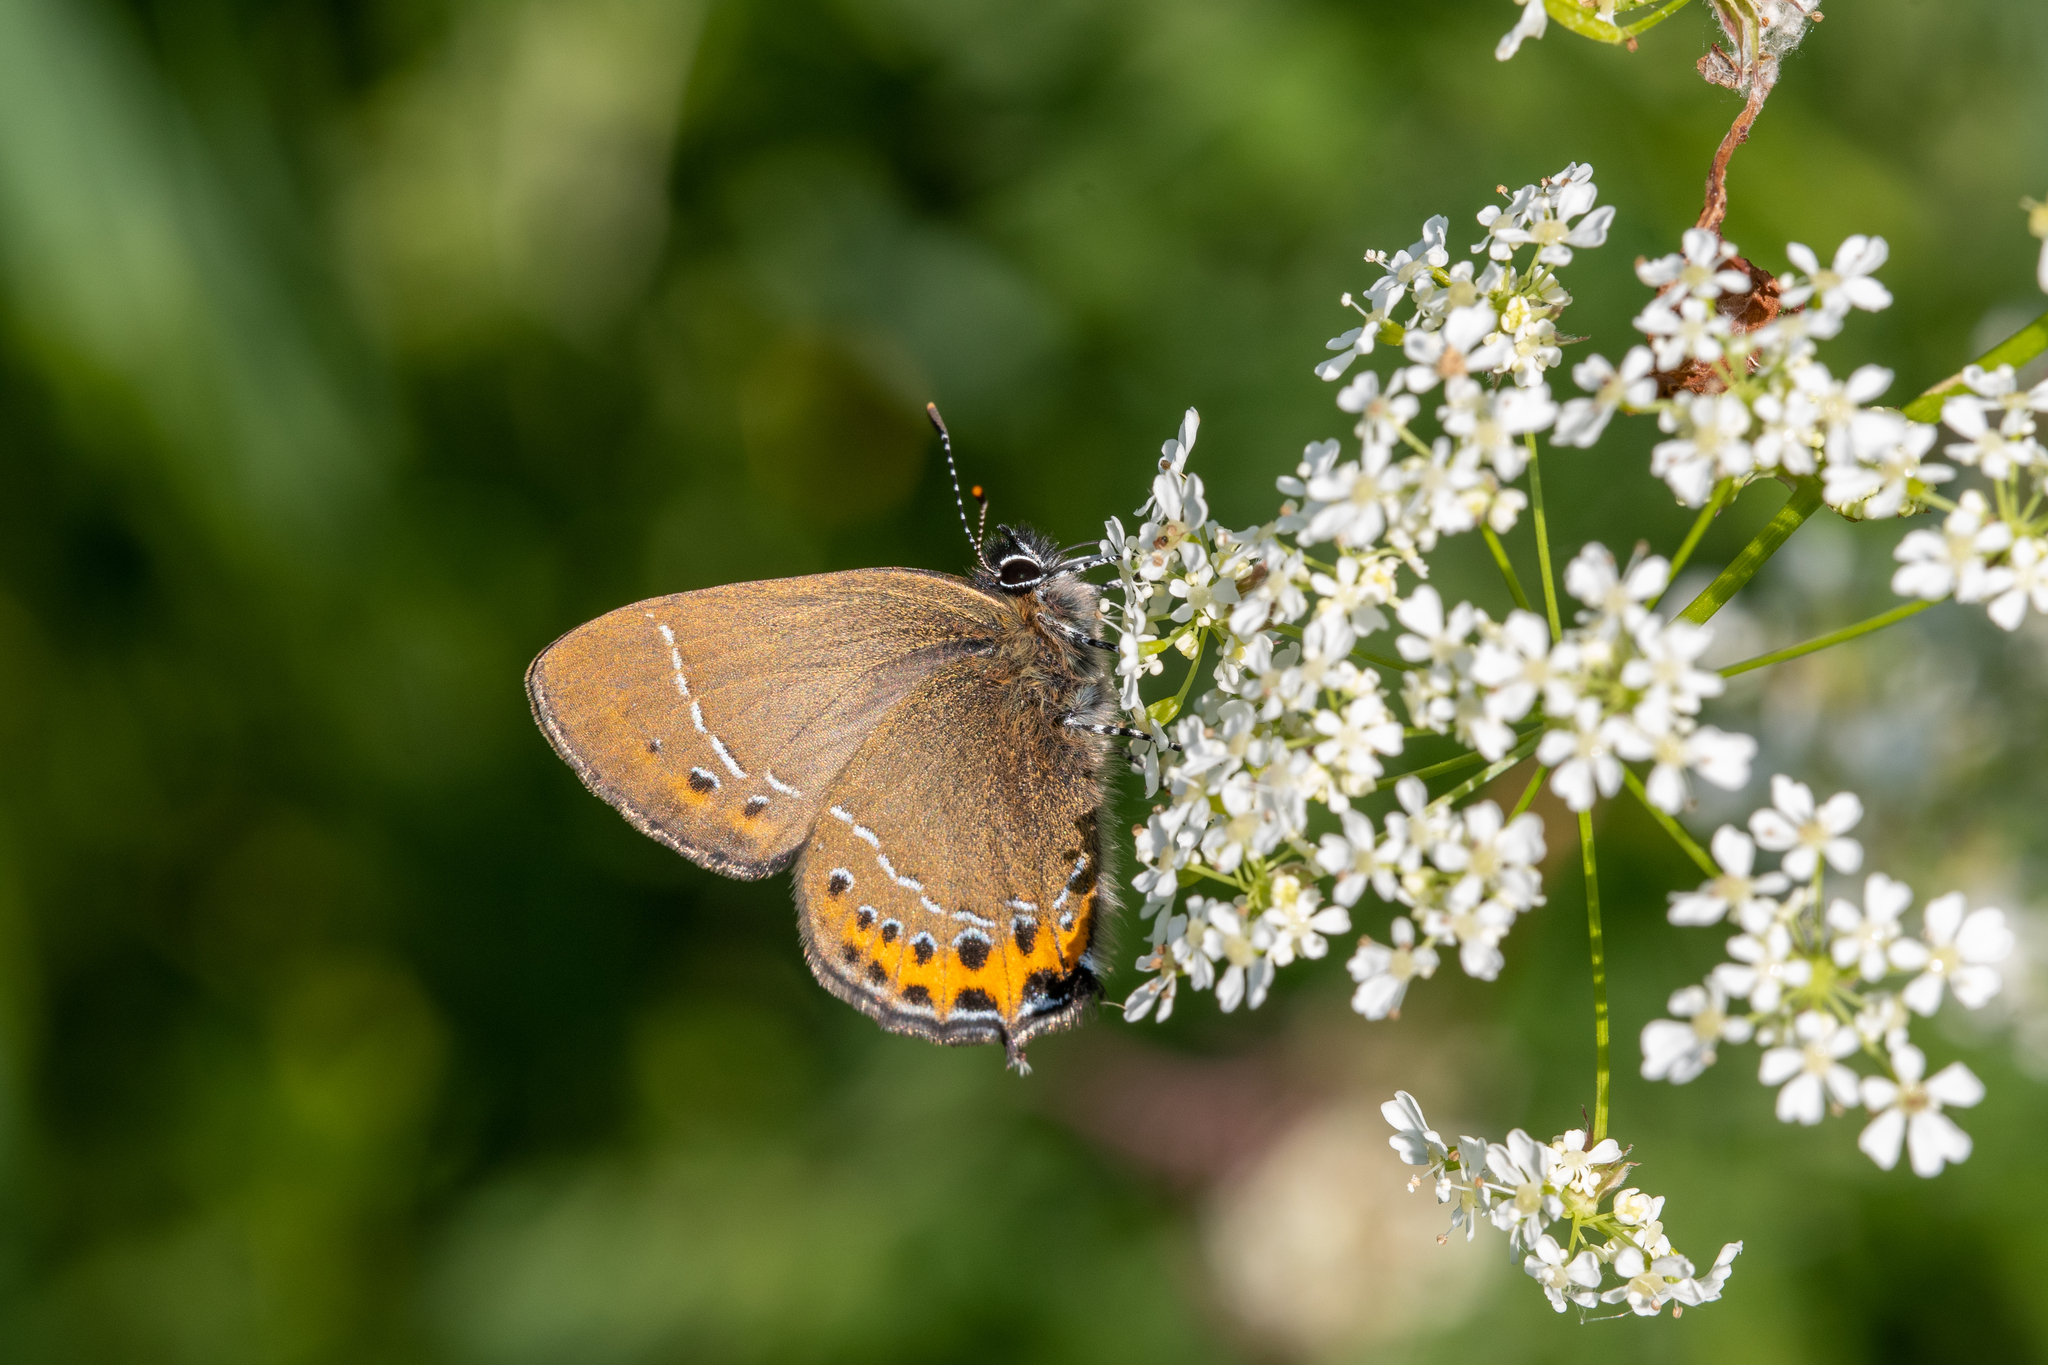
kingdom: Animalia
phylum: Arthropoda
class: Insecta
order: Lepidoptera
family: Lycaenidae
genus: Fixsenia
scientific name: Fixsenia pruni
